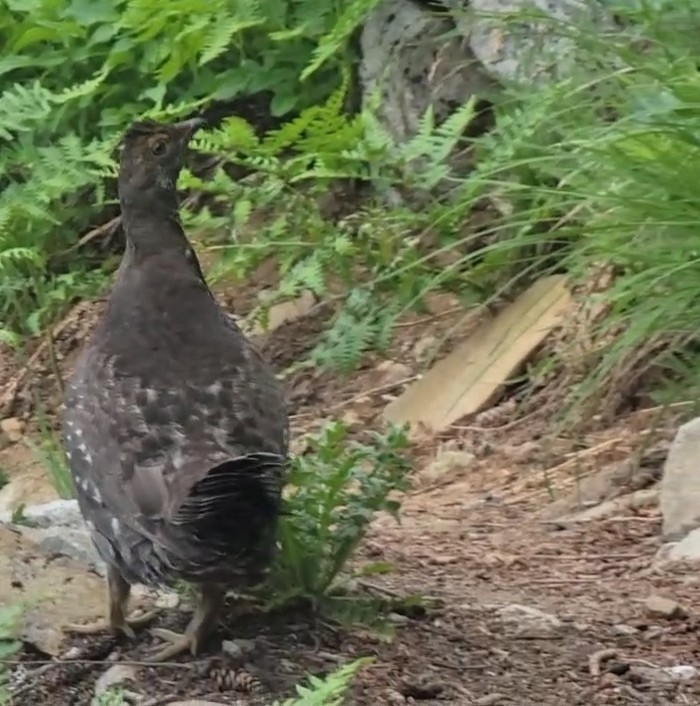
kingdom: Animalia
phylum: Chordata
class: Aves
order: Galliformes
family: Phasianidae
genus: Dendragapus
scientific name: Dendragapus fuliginosus
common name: Sooty grouse
